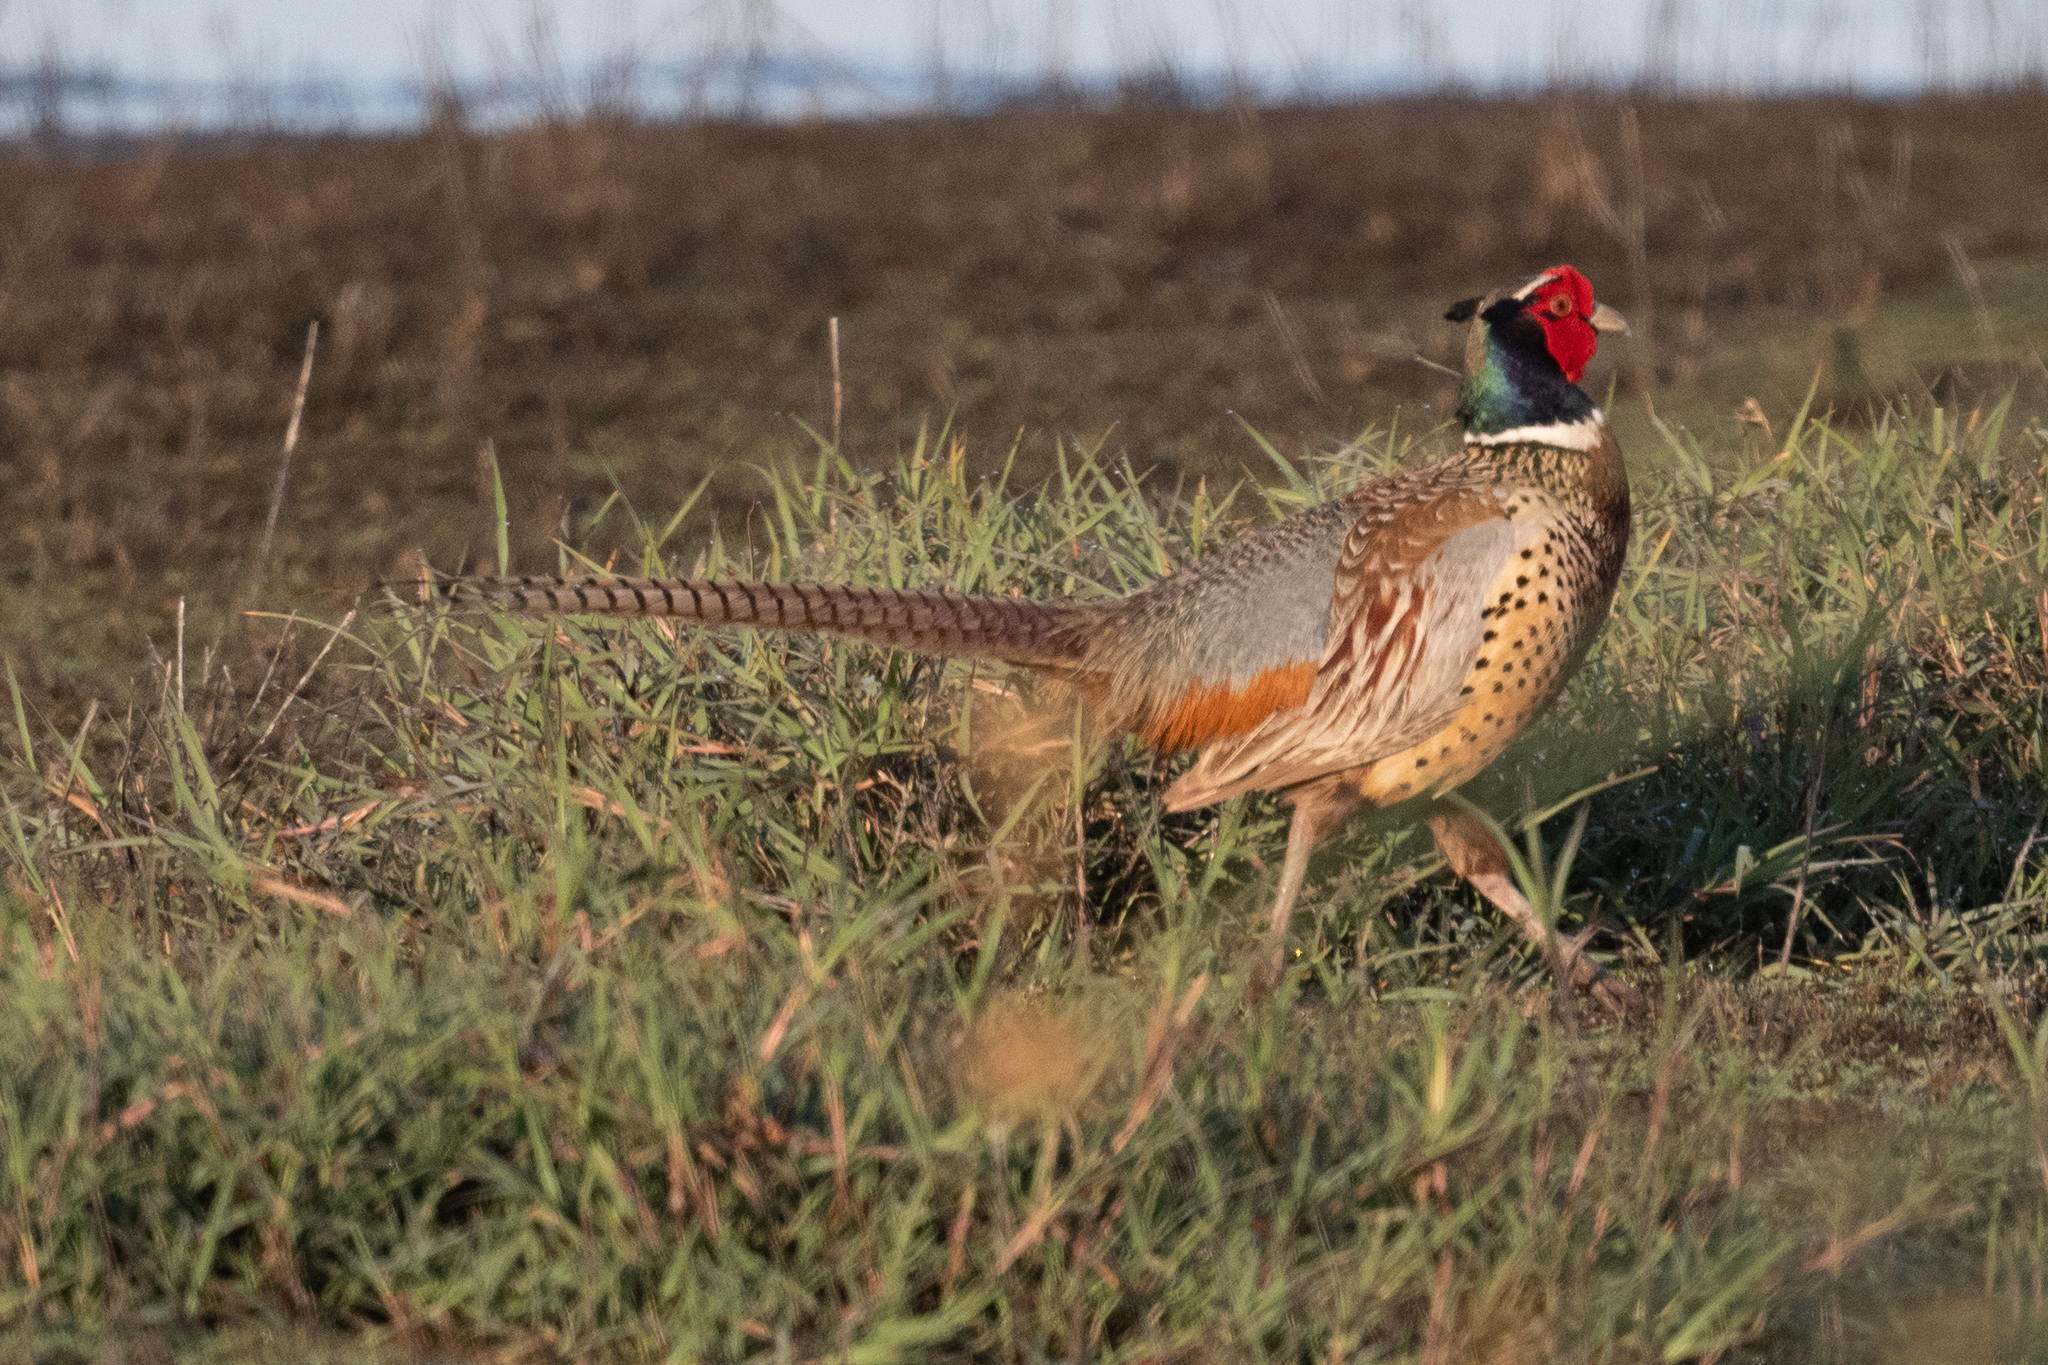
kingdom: Animalia
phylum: Chordata
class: Aves
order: Galliformes
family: Phasianidae
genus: Phasianus
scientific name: Phasianus colchicus
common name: Common pheasant
